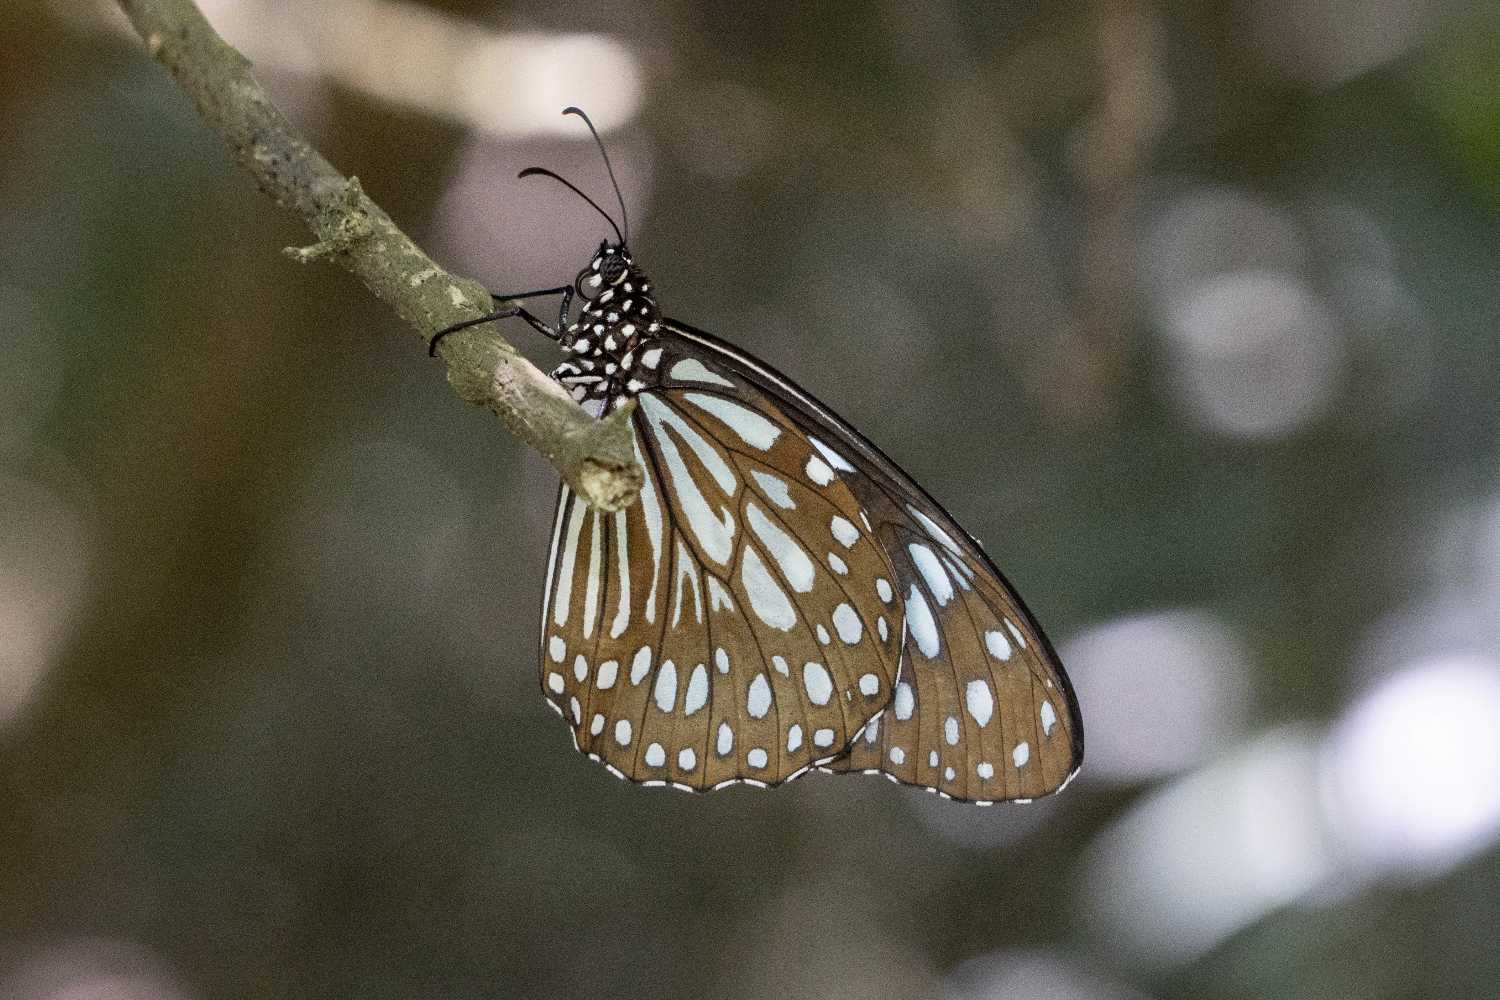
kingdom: Animalia
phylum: Arthropoda
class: Insecta
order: Lepidoptera
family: Nymphalidae
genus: Tirumala
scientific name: Tirumala limniace
